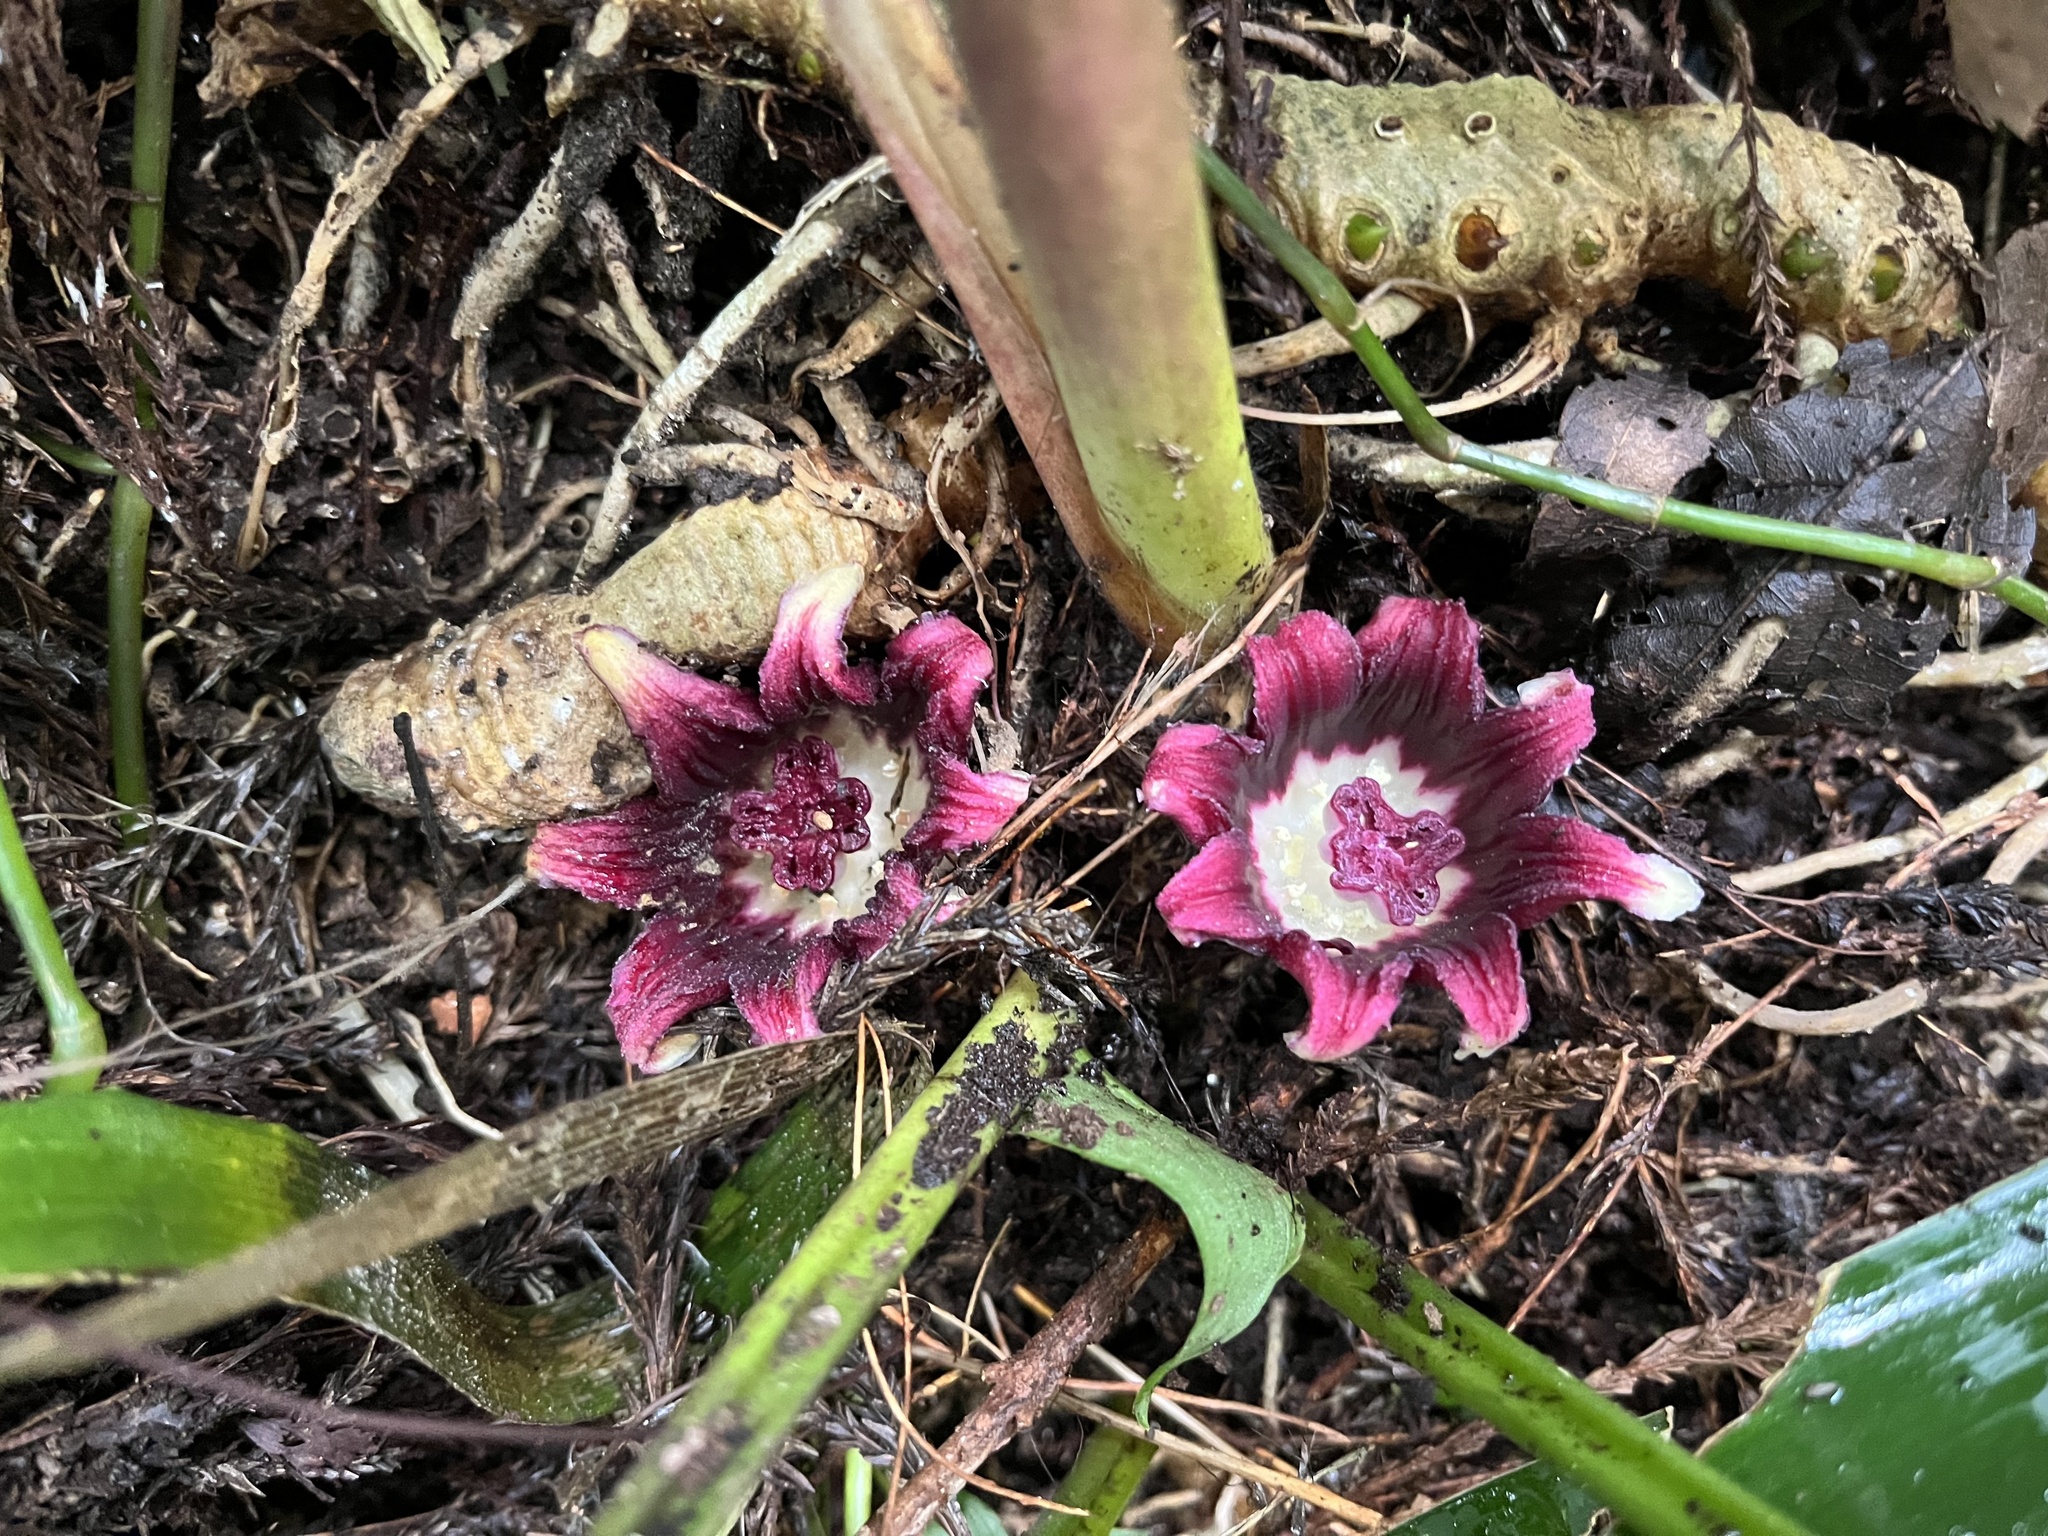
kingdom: Plantae
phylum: Tracheophyta
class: Liliopsida
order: Asparagales
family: Asparagaceae
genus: Aspidistra
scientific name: Aspidistra attenuata
